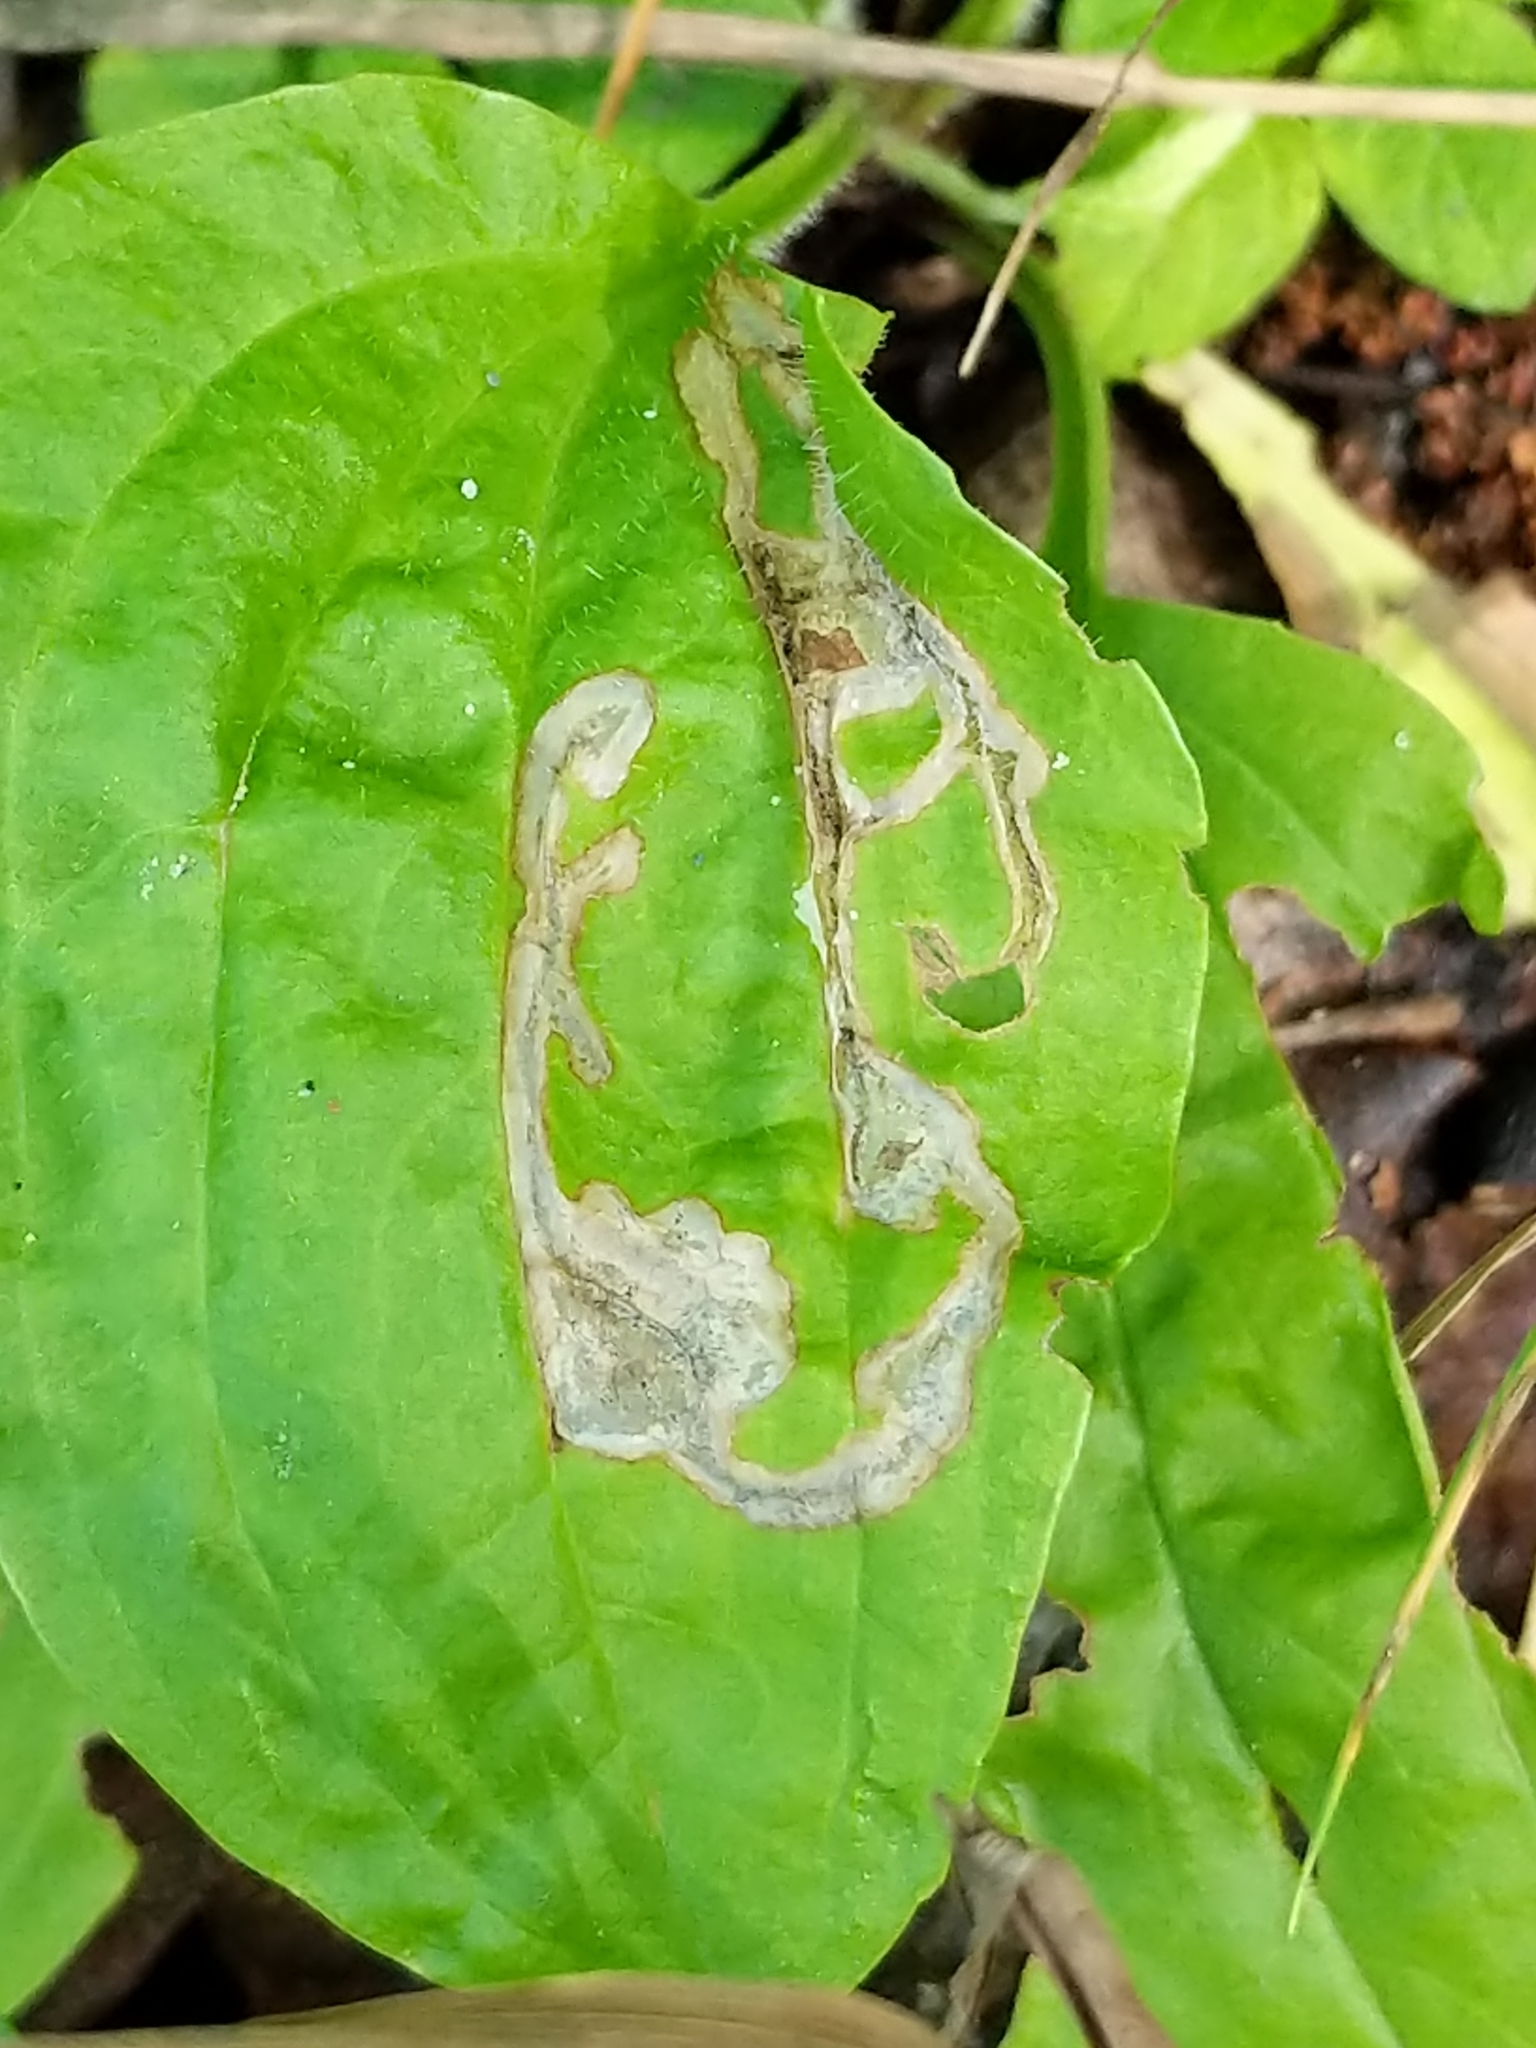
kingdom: Animalia
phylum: Arthropoda
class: Insecta
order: Coleoptera
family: Chrysomelidae
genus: Dibolia
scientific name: Dibolia borealis
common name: Northern plantain flea beetle
